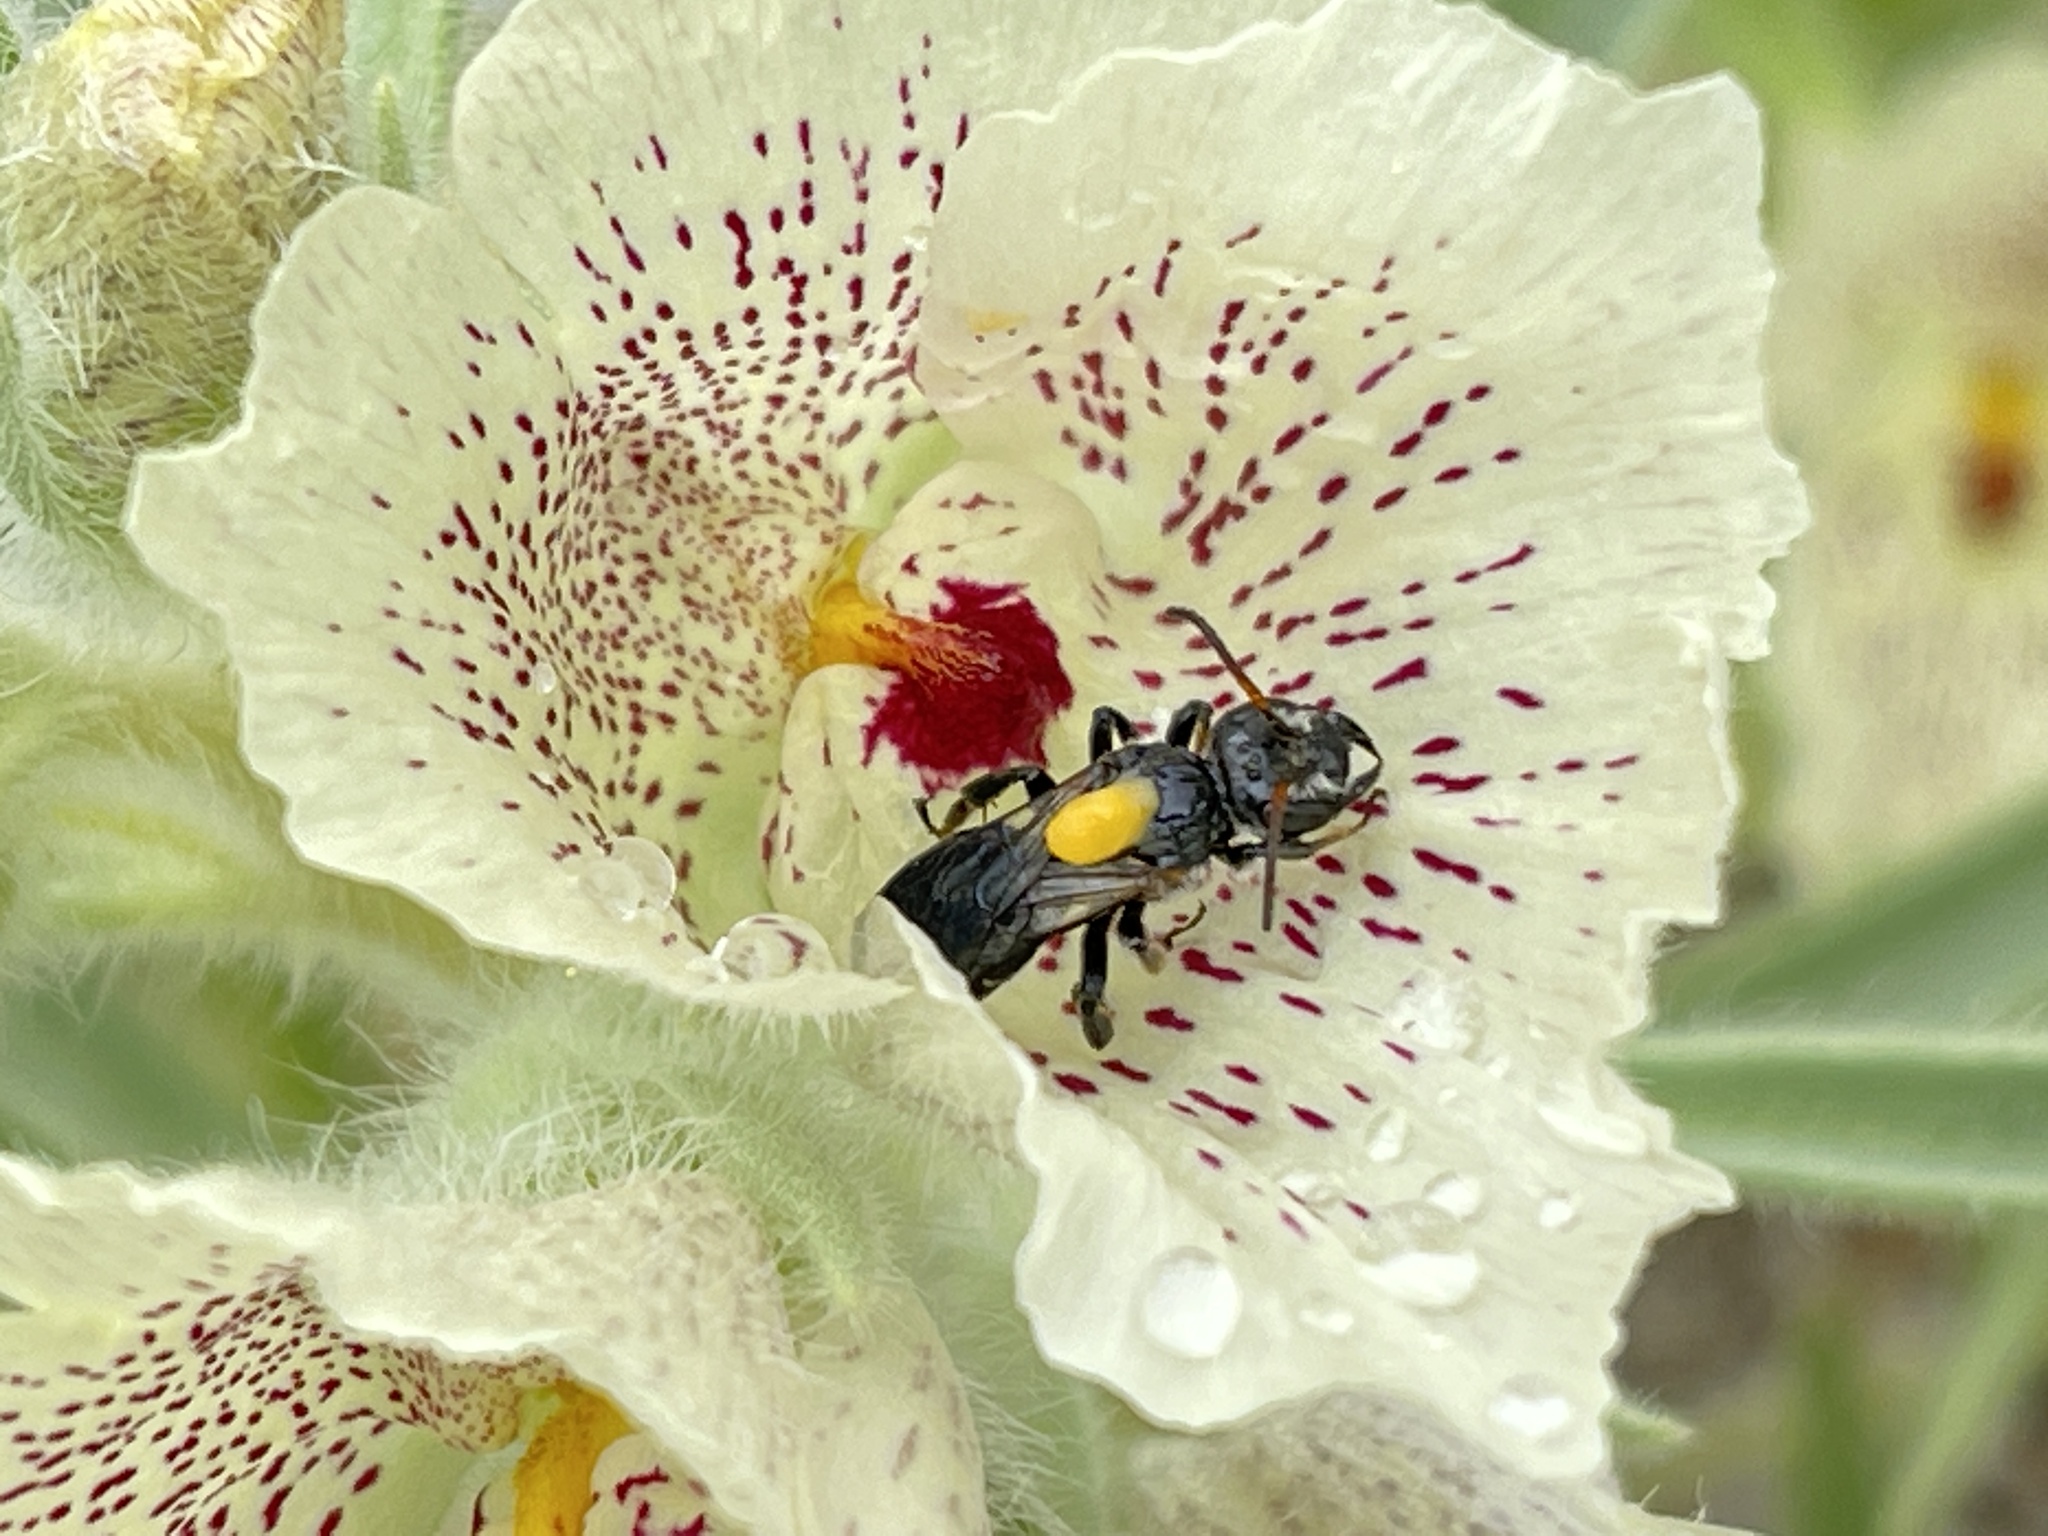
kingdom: Plantae
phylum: Tracheophyta
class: Magnoliopsida
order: Lamiales
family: Plantaginaceae
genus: Mohavea
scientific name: Mohavea confertiflora
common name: Ghost flower
